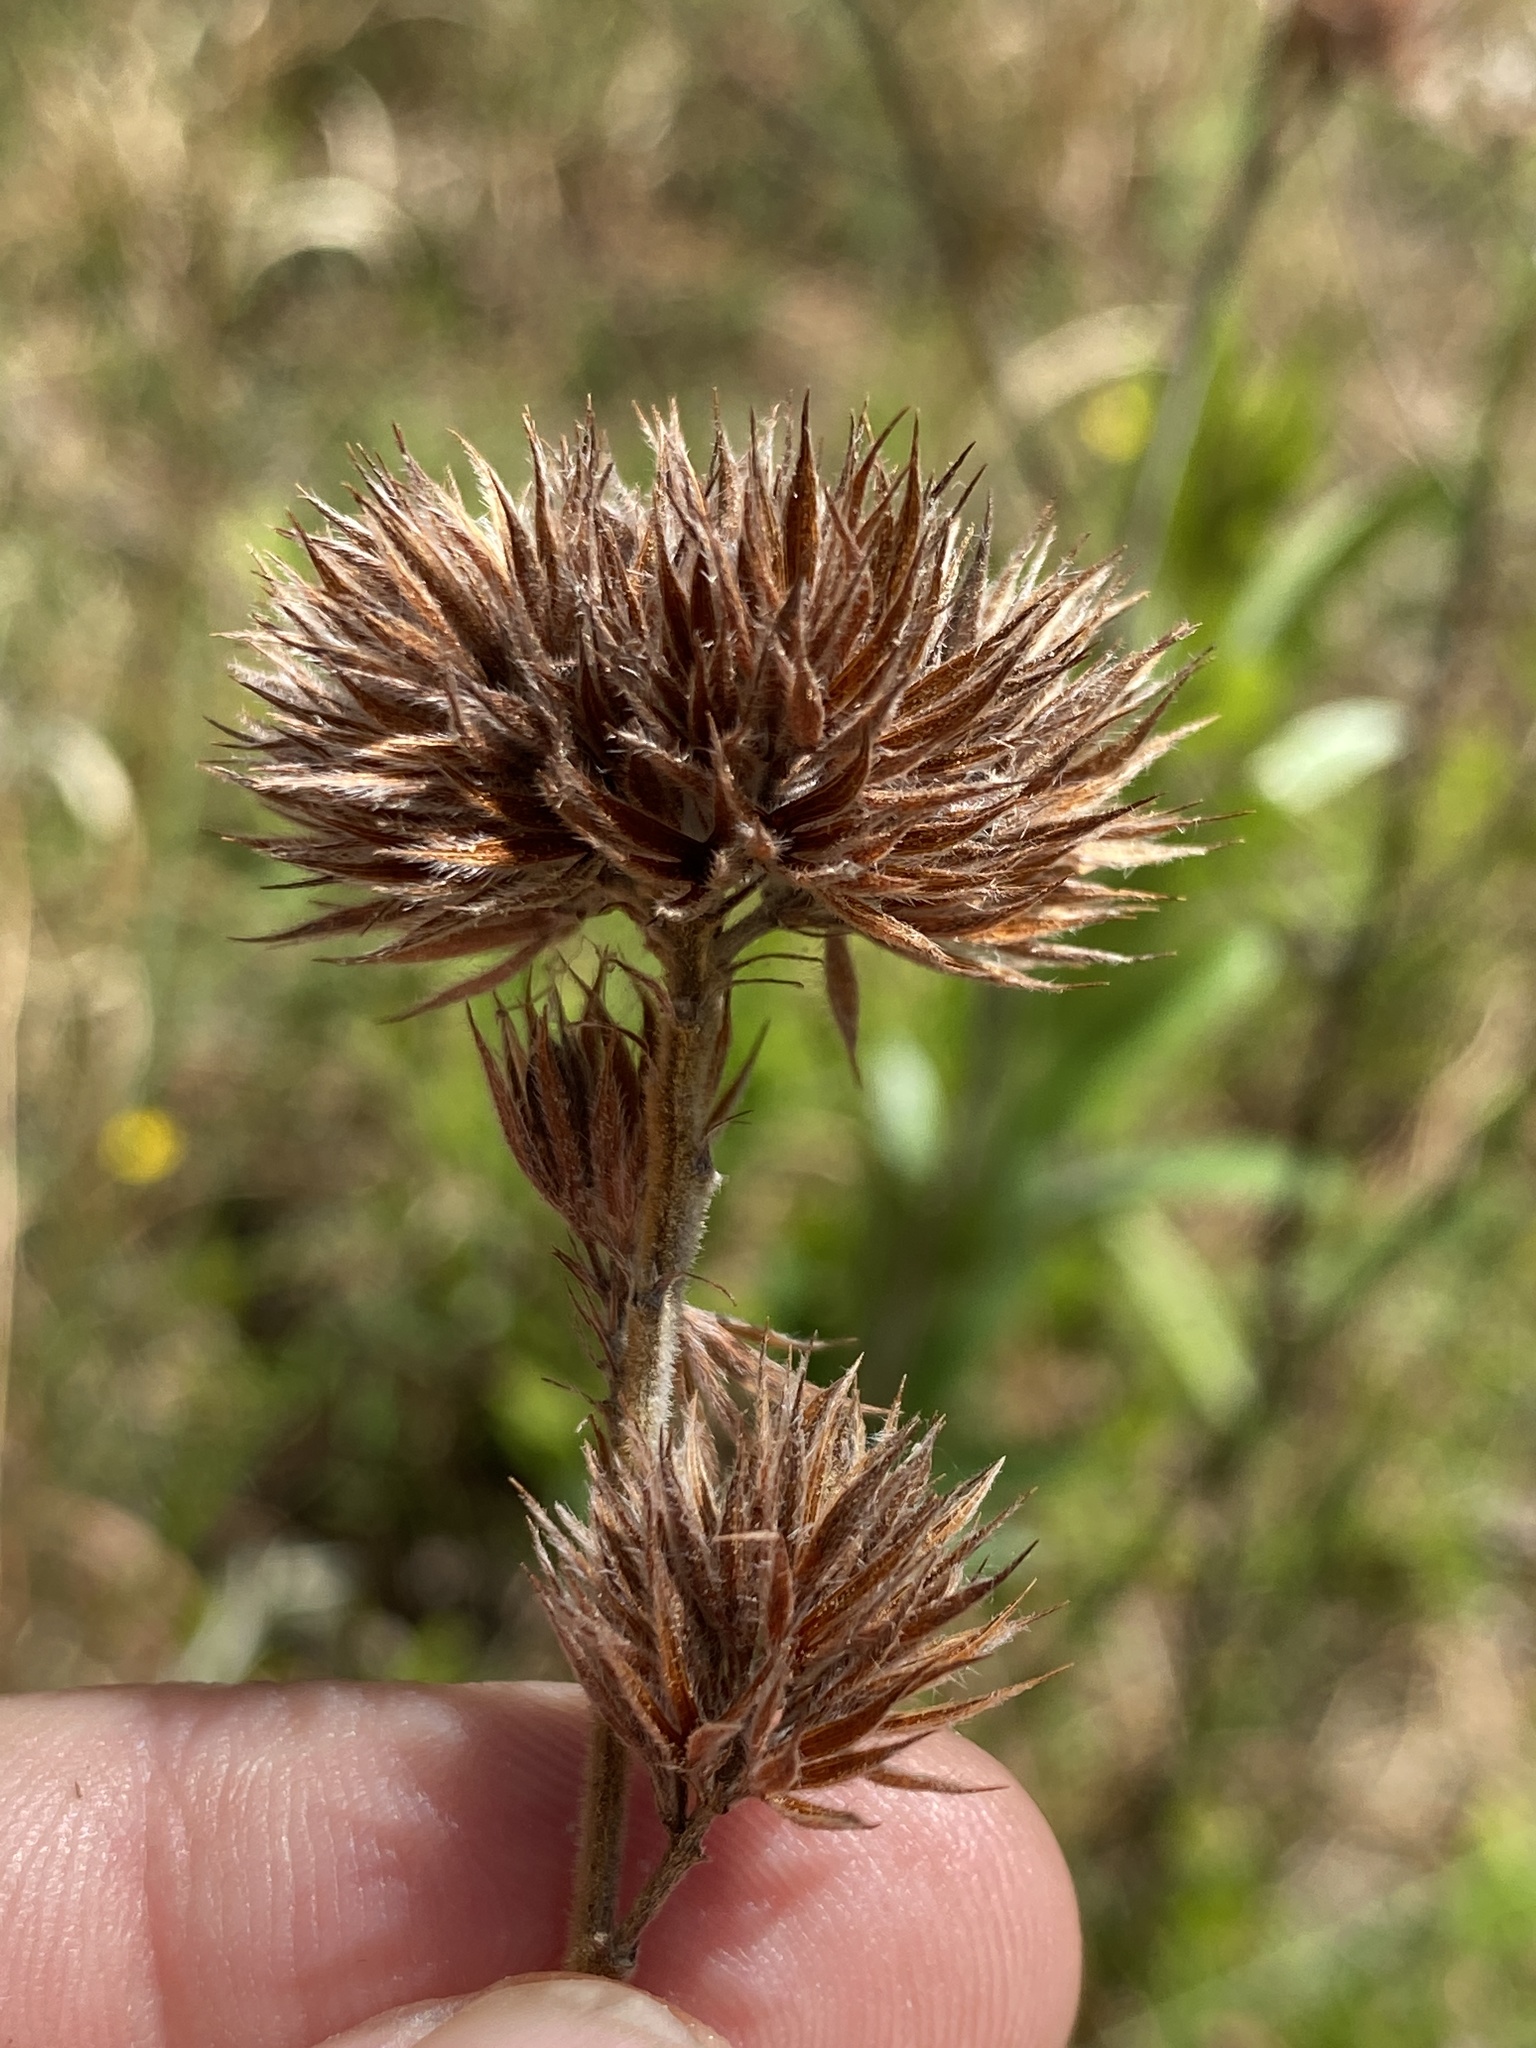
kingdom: Plantae
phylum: Tracheophyta
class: Magnoliopsida
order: Fabales
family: Fabaceae
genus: Lespedeza
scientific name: Lespedeza capitata
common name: Dusty clover
